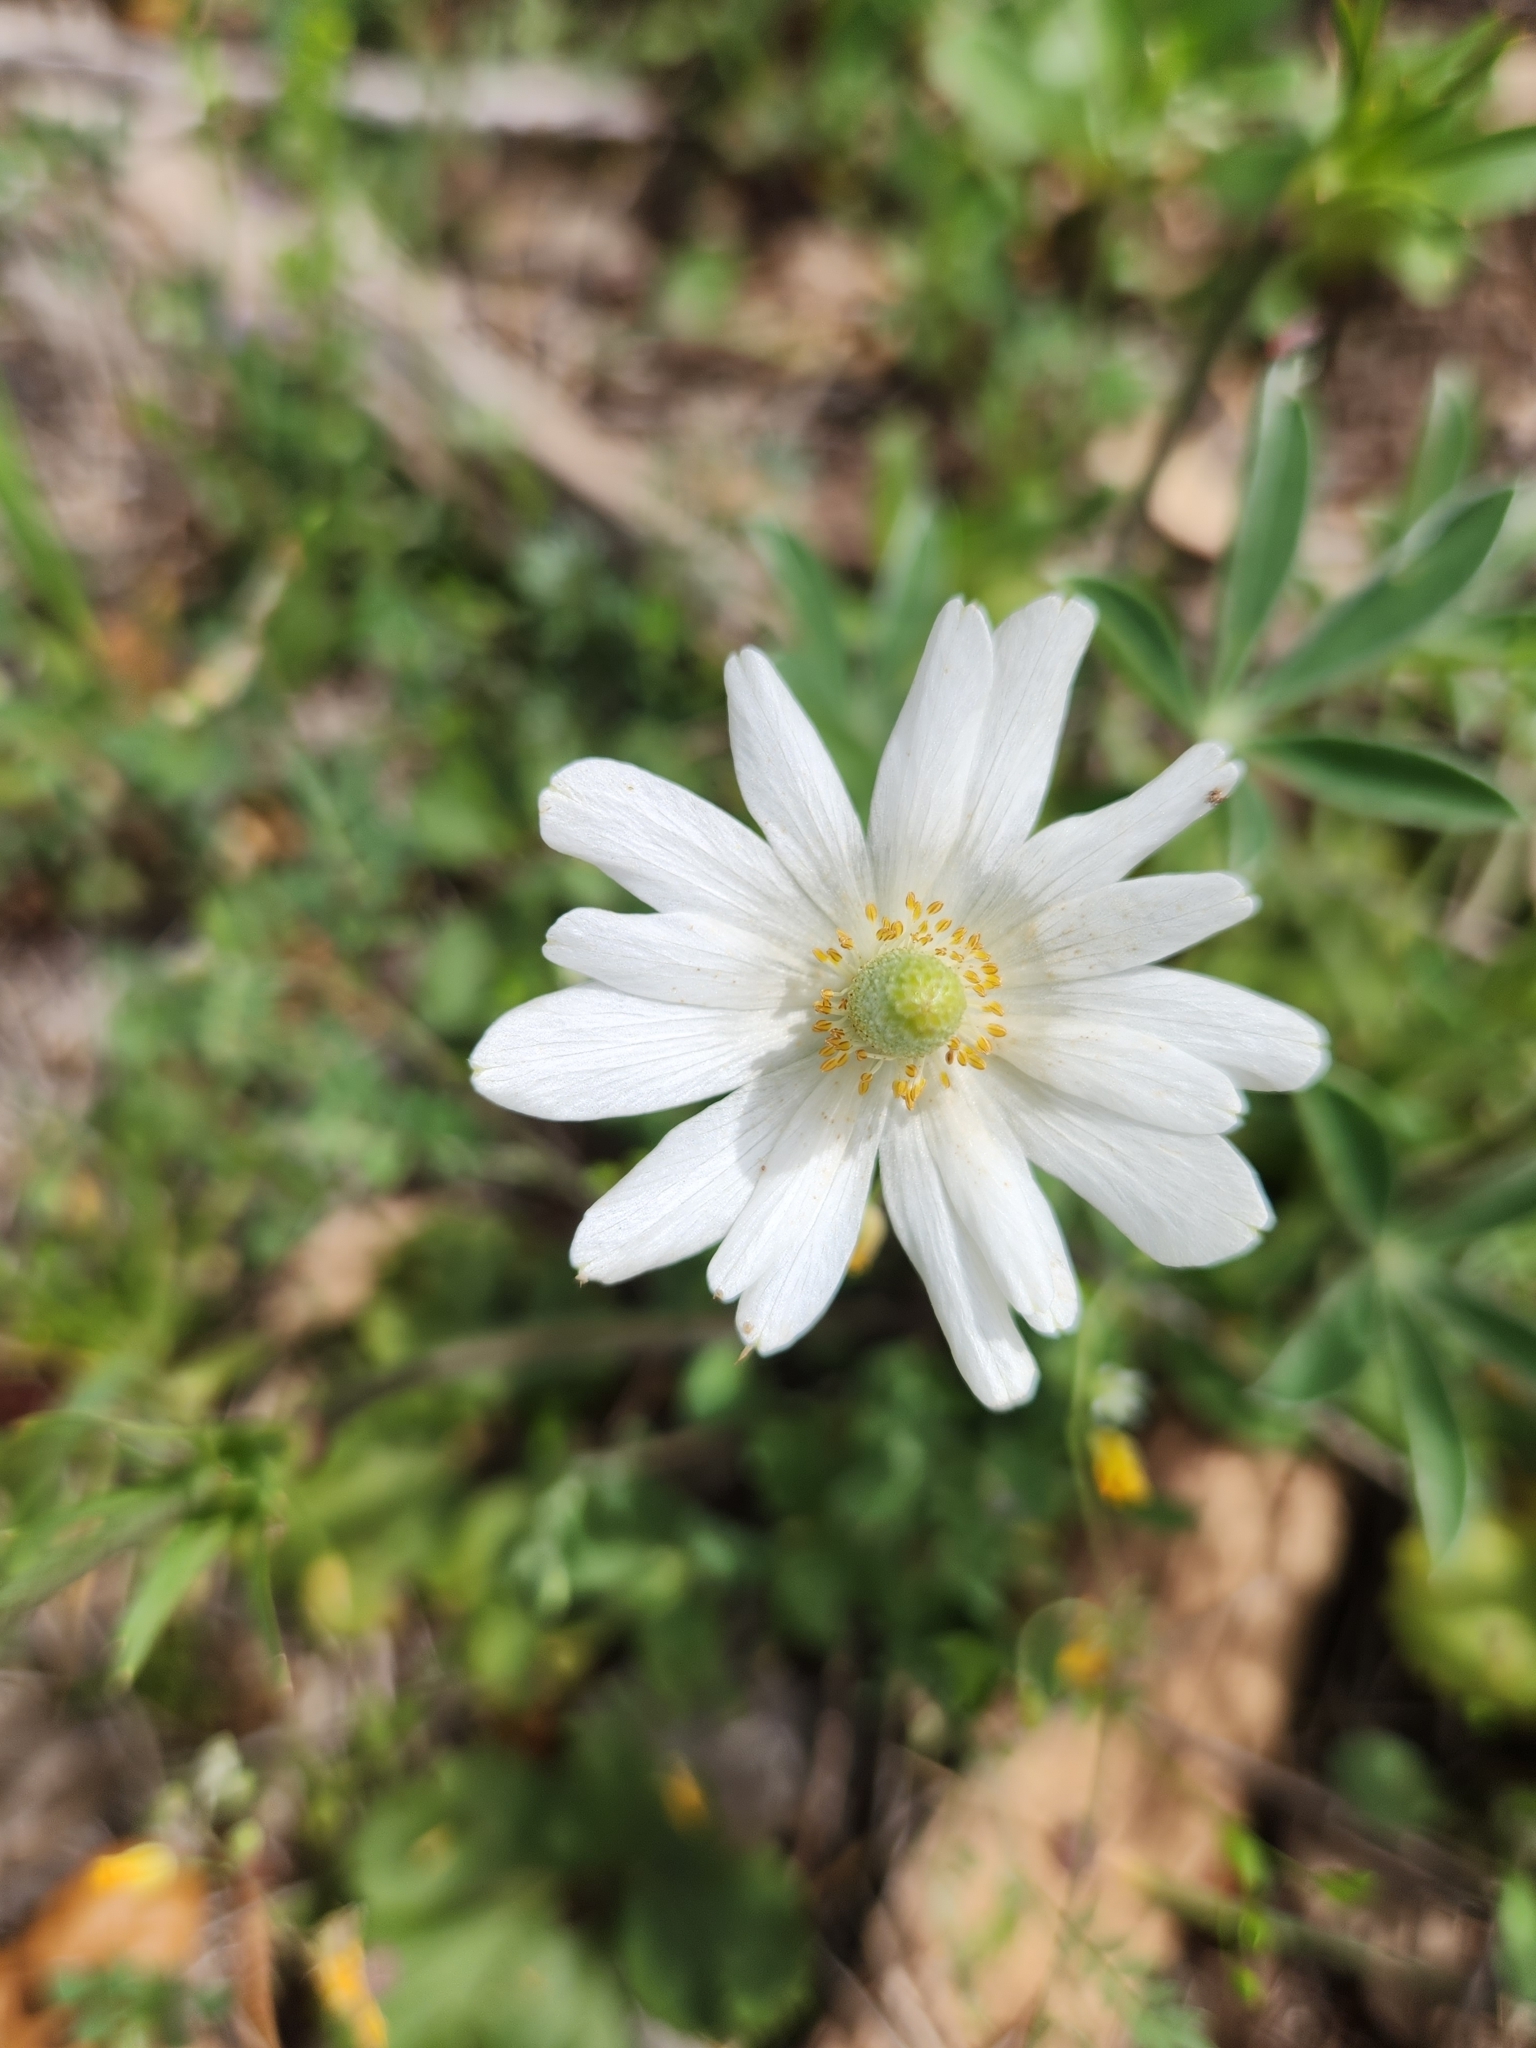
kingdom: Plantae
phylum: Tracheophyta
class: Magnoliopsida
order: Ranunculales
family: Ranunculaceae
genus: Anemone
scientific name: Anemone berlandieri
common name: Ten-petal anemone
